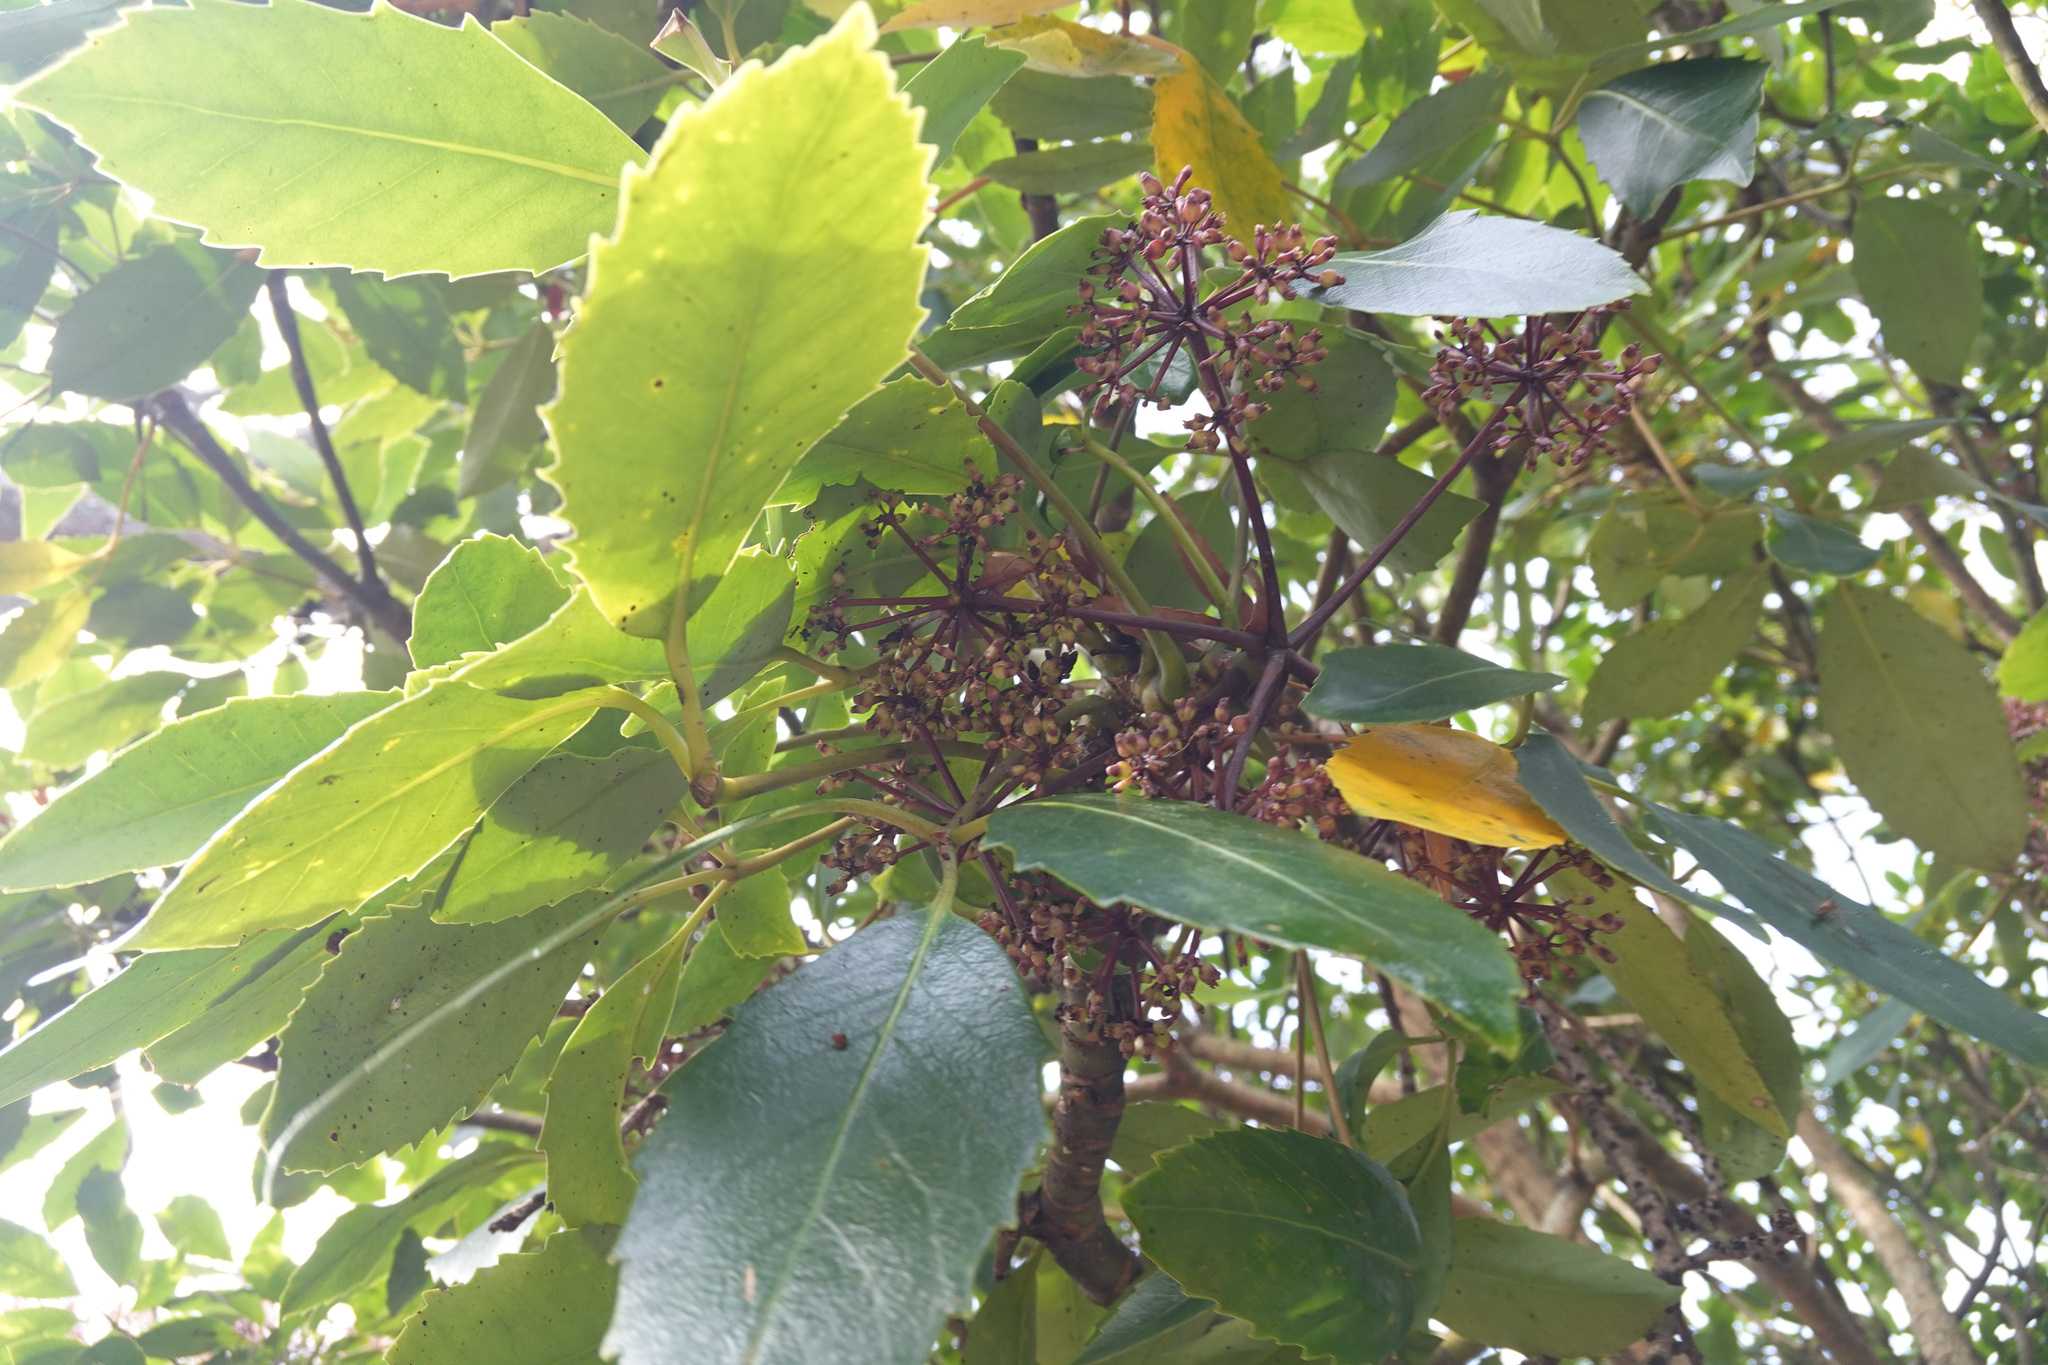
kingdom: Plantae
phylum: Tracheophyta
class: Magnoliopsida
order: Apiales
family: Araliaceae
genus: Neopanax
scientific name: Neopanax arboreus
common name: Five-fingers
